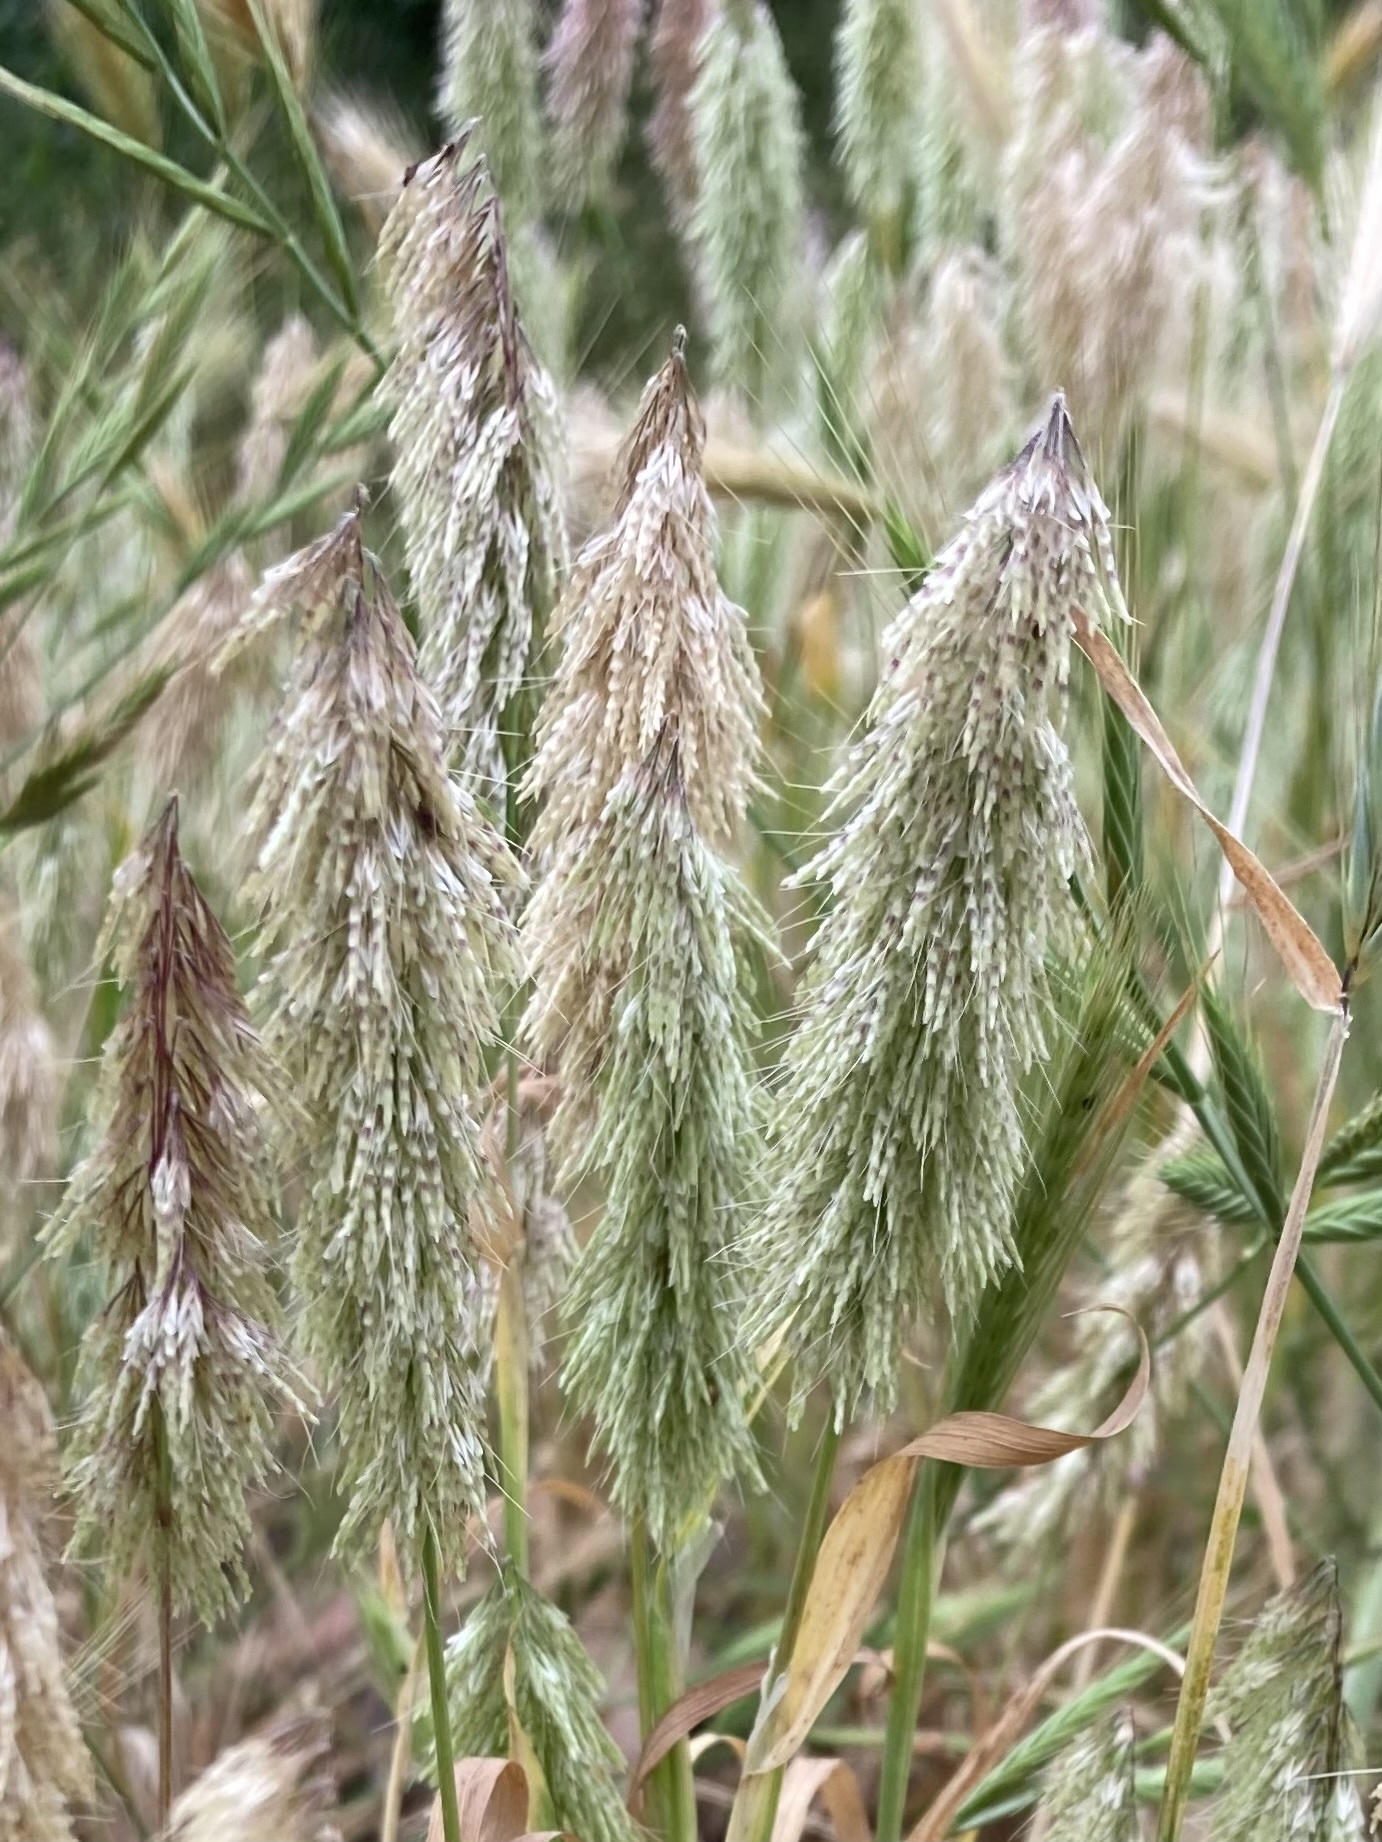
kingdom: Plantae
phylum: Tracheophyta
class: Liliopsida
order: Poales
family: Poaceae
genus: Lamarckia
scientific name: Lamarckia aurea
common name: Golden dog's-tail
